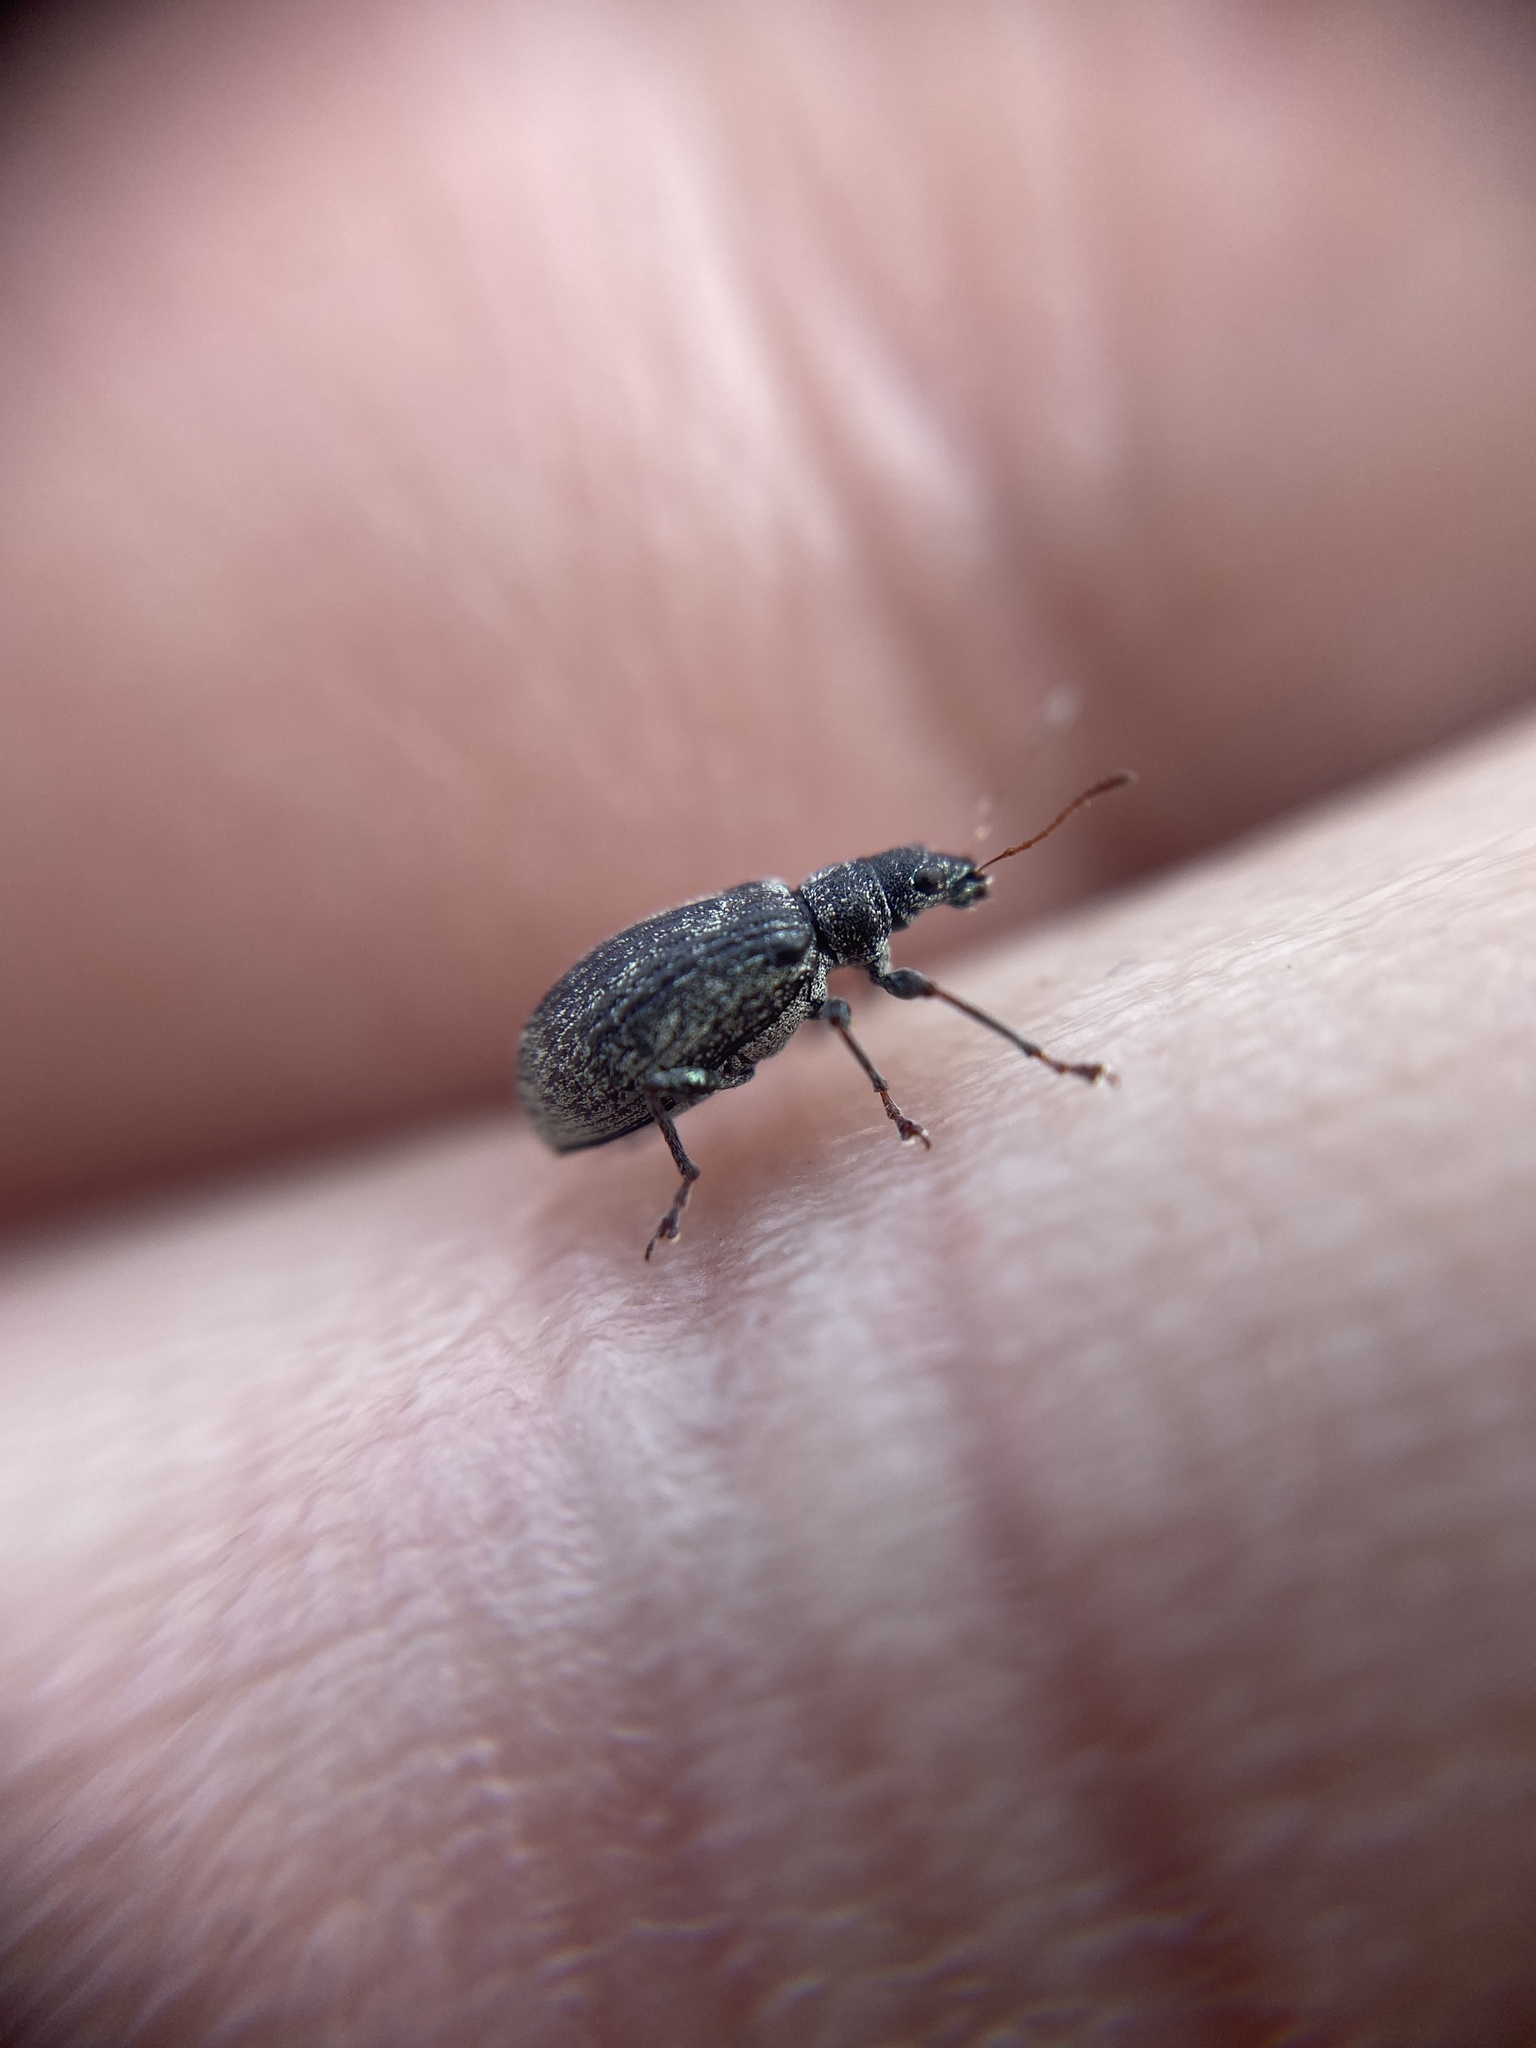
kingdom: Animalia
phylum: Arthropoda
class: Insecta
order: Coleoptera
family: Curculionidae
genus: Polydrusus
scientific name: Polydrusus cervinus
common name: Weevil
